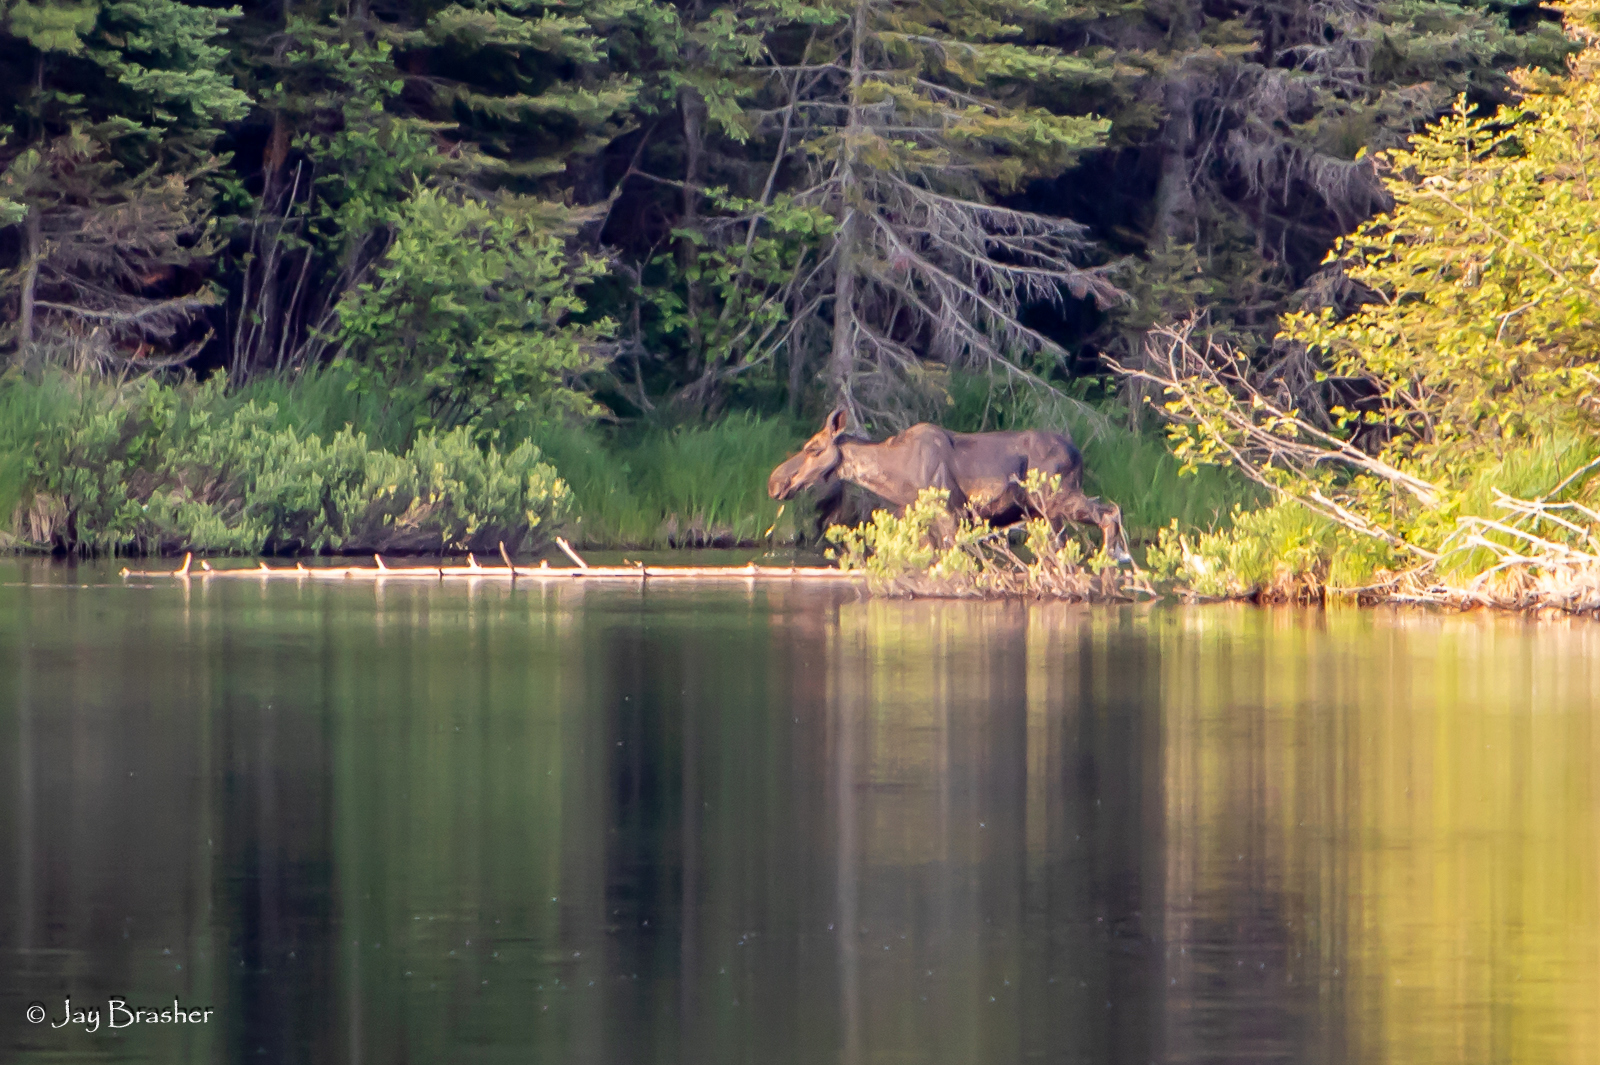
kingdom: Animalia
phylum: Chordata
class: Mammalia
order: Artiodactyla
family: Cervidae
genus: Alces
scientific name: Alces americanus
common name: Moose
